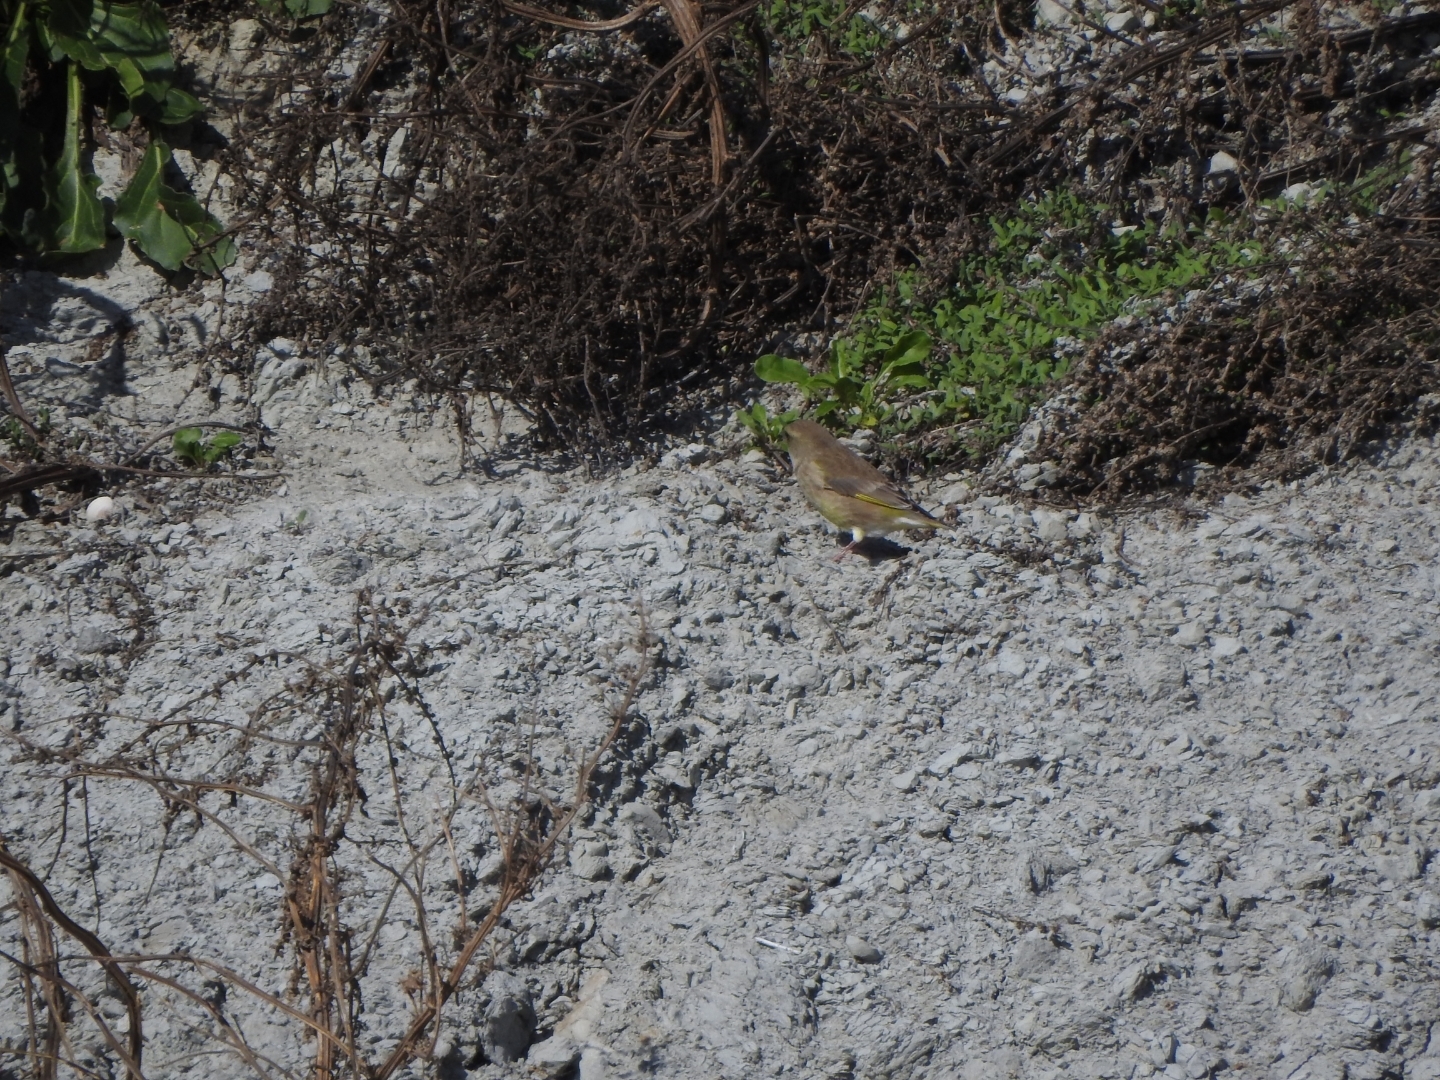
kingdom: Plantae
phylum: Tracheophyta
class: Liliopsida
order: Poales
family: Poaceae
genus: Chloris
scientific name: Chloris chloris
